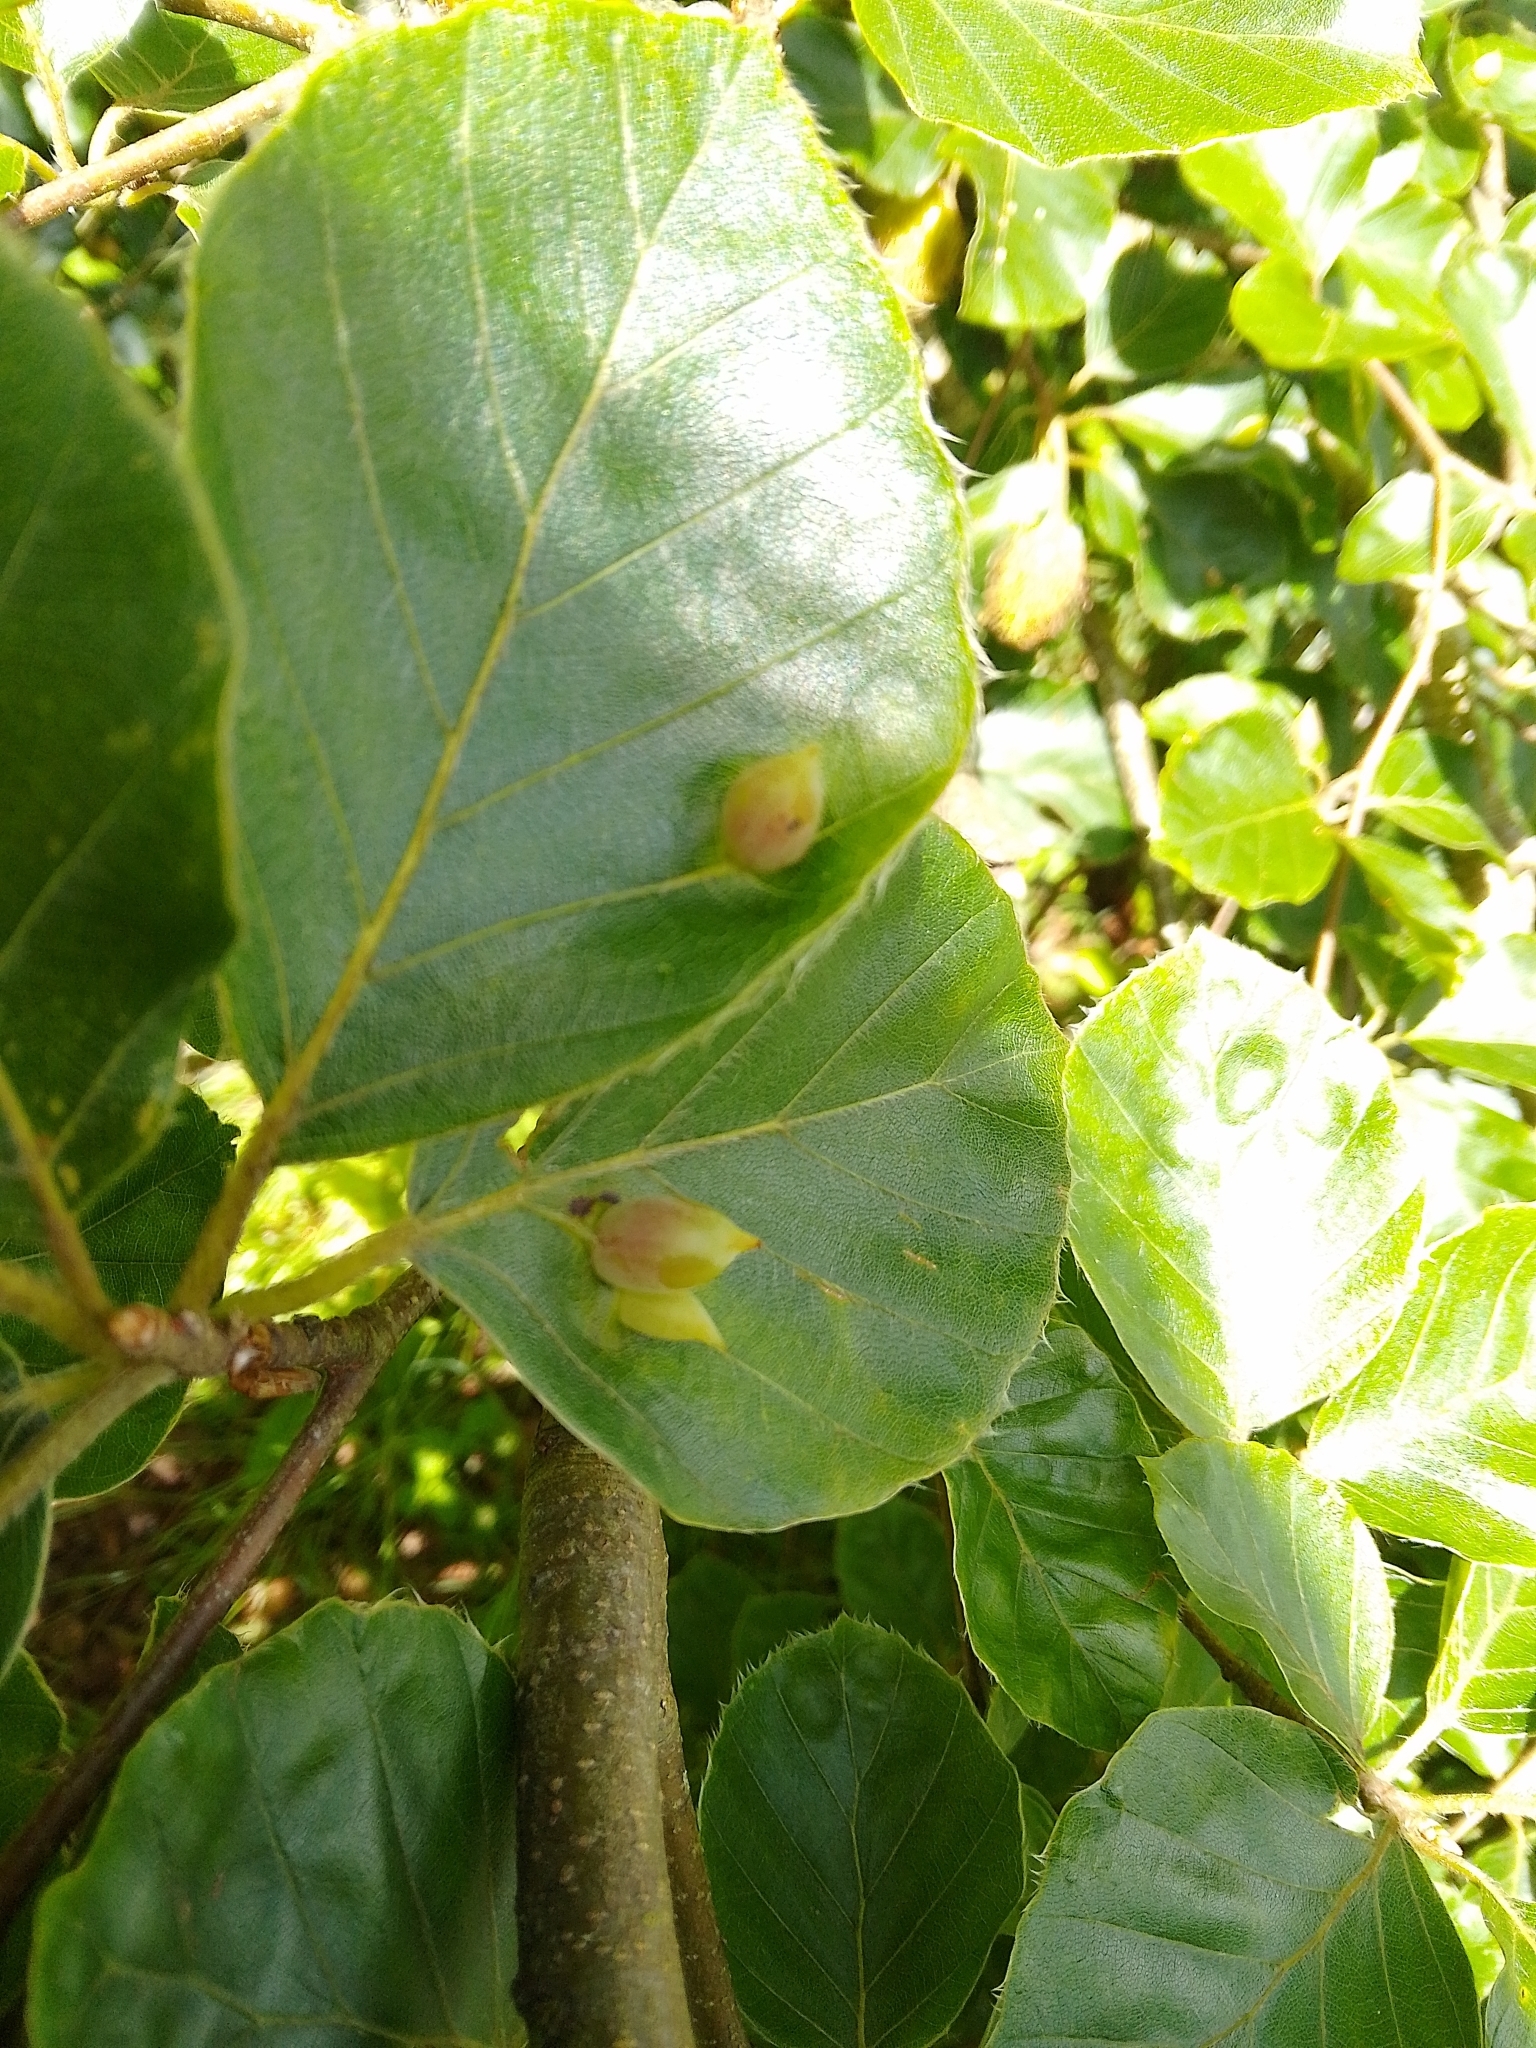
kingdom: Animalia
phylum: Arthropoda
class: Insecta
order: Diptera
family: Cecidomyiidae
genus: Mikiola
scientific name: Mikiola fagi
